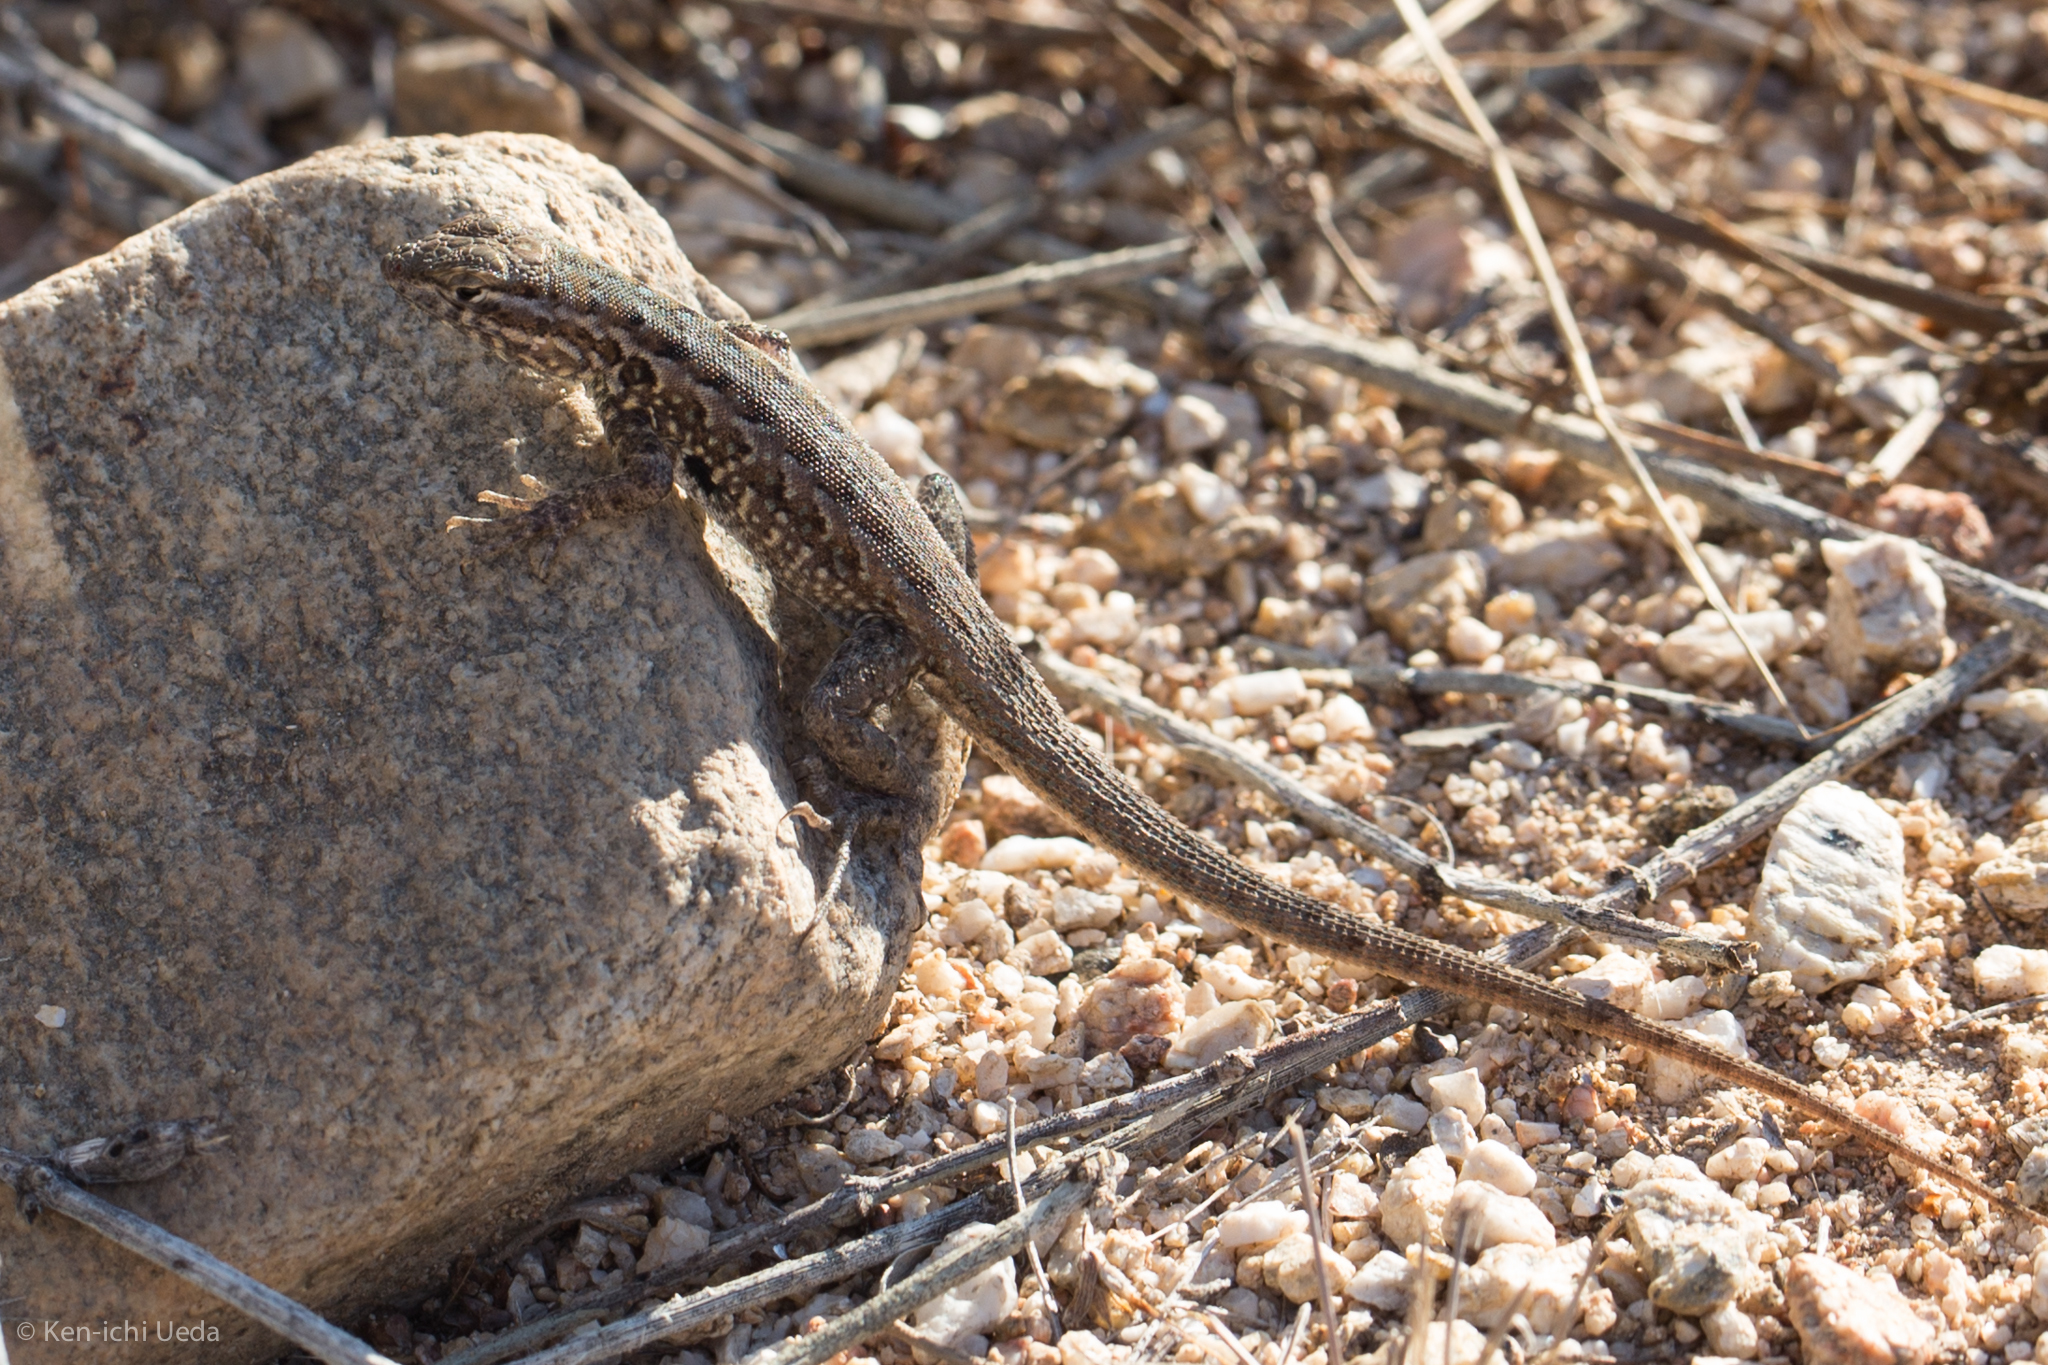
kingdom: Animalia
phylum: Chordata
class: Squamata
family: Phrynosomatidae
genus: Uta
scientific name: Uta stansburiana
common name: Side-blotched lizard
